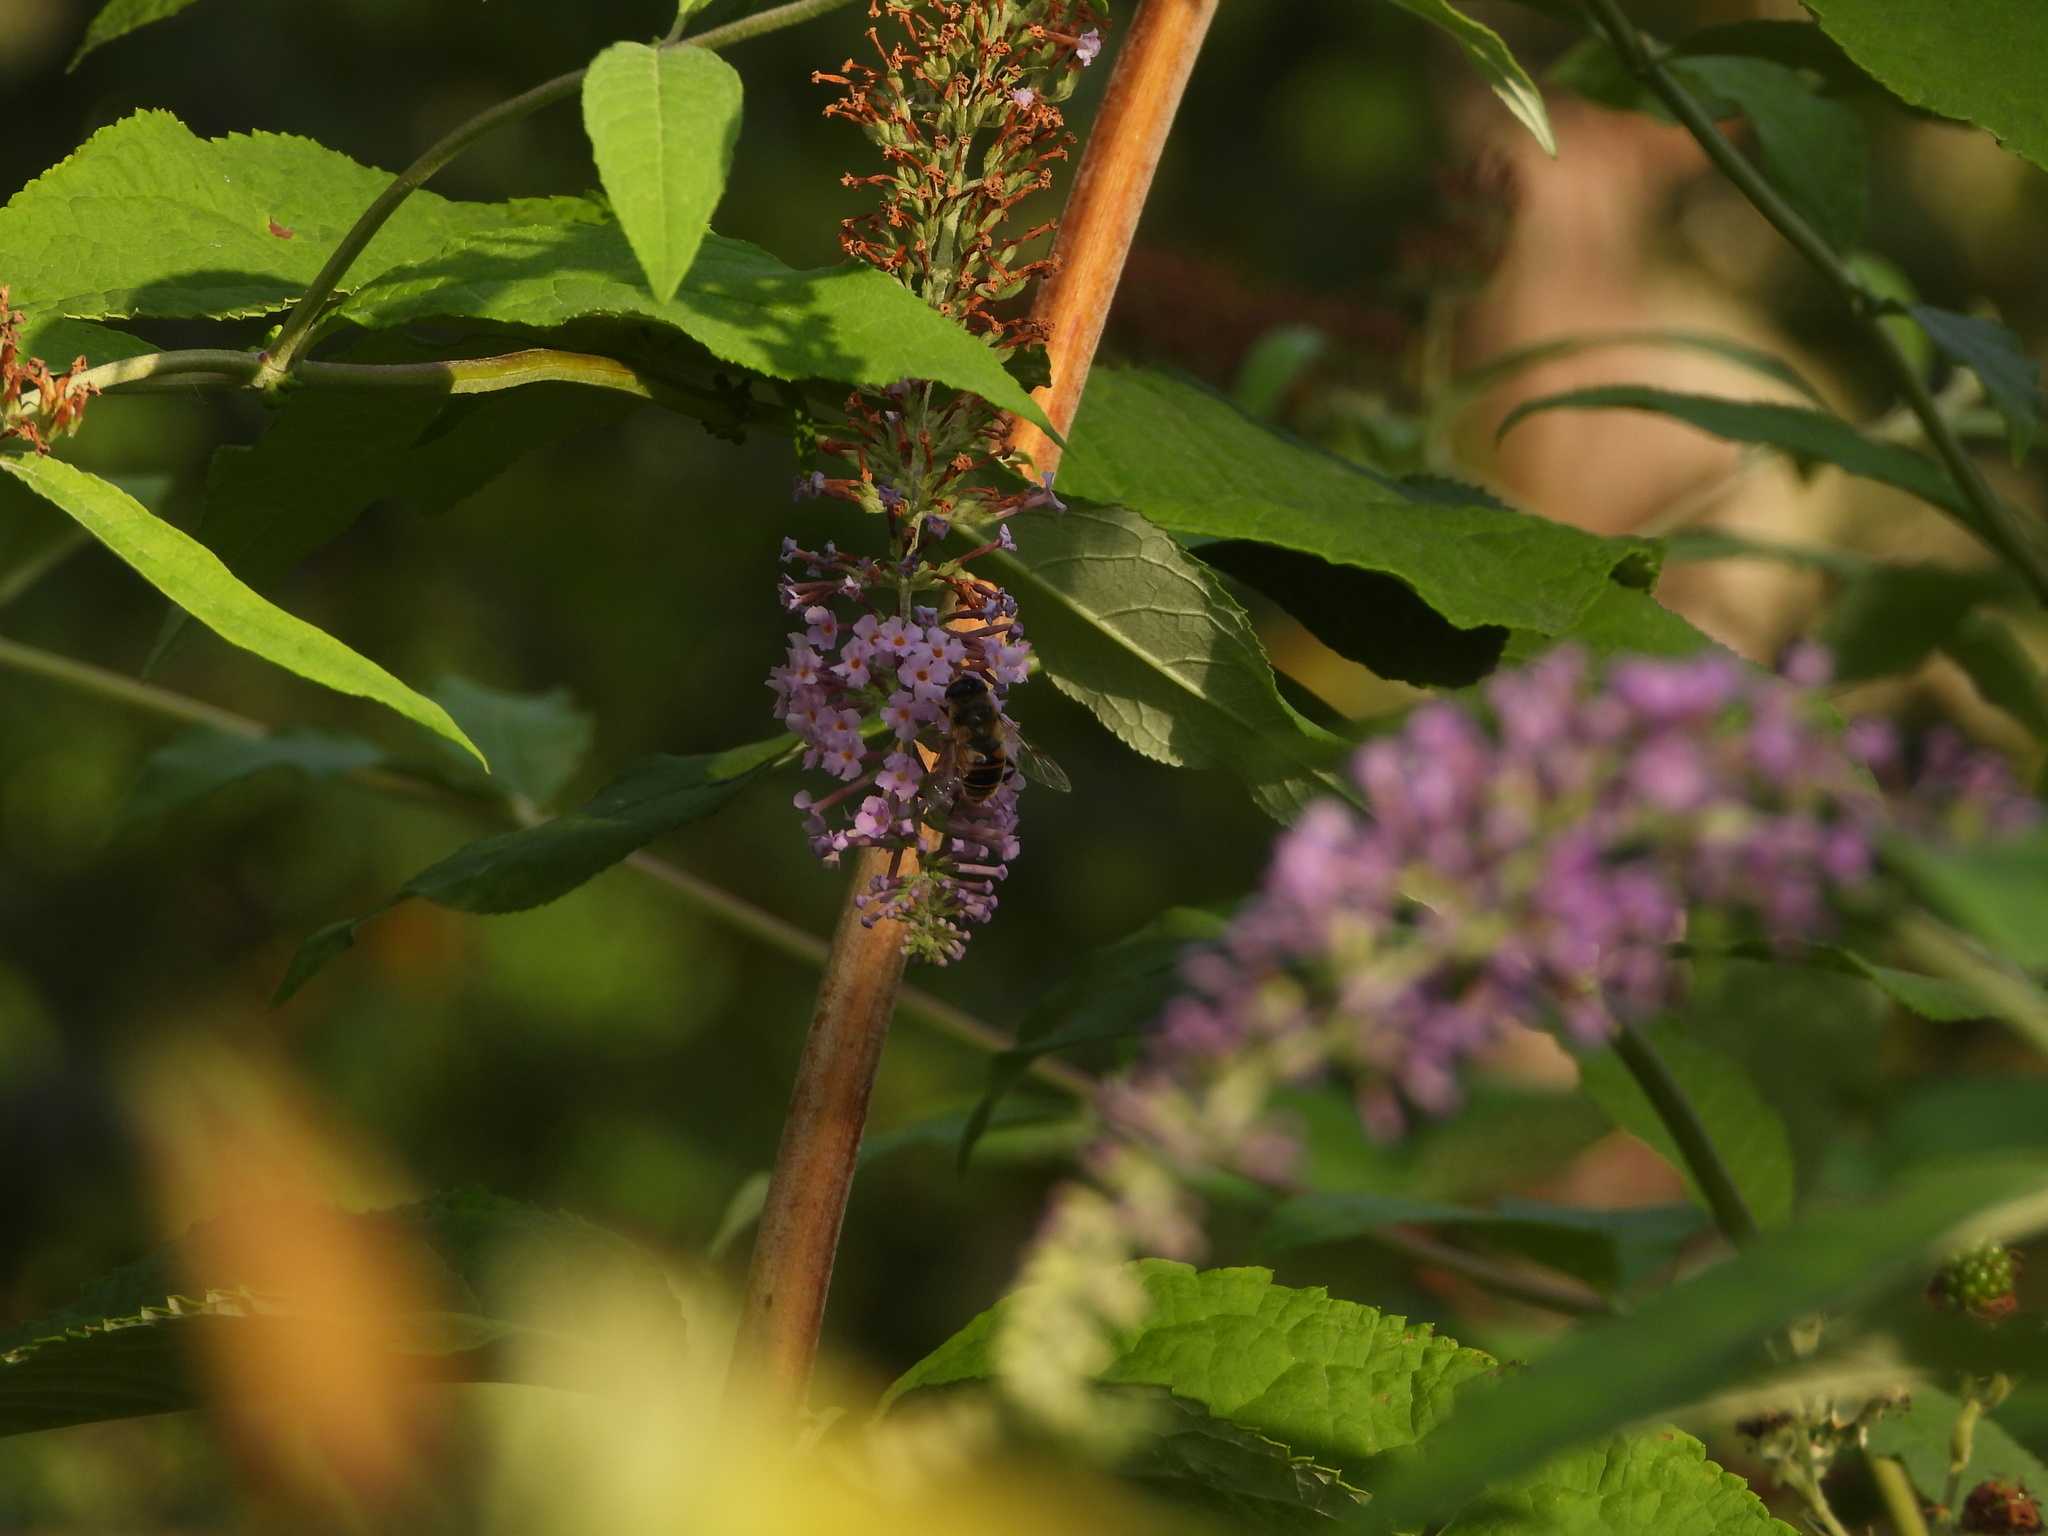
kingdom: Animalia
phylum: Arthropoda
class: Insecta
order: Diptera
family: Syrphidae
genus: Eristalis
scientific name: Eristalis tenax
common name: Drone fly
